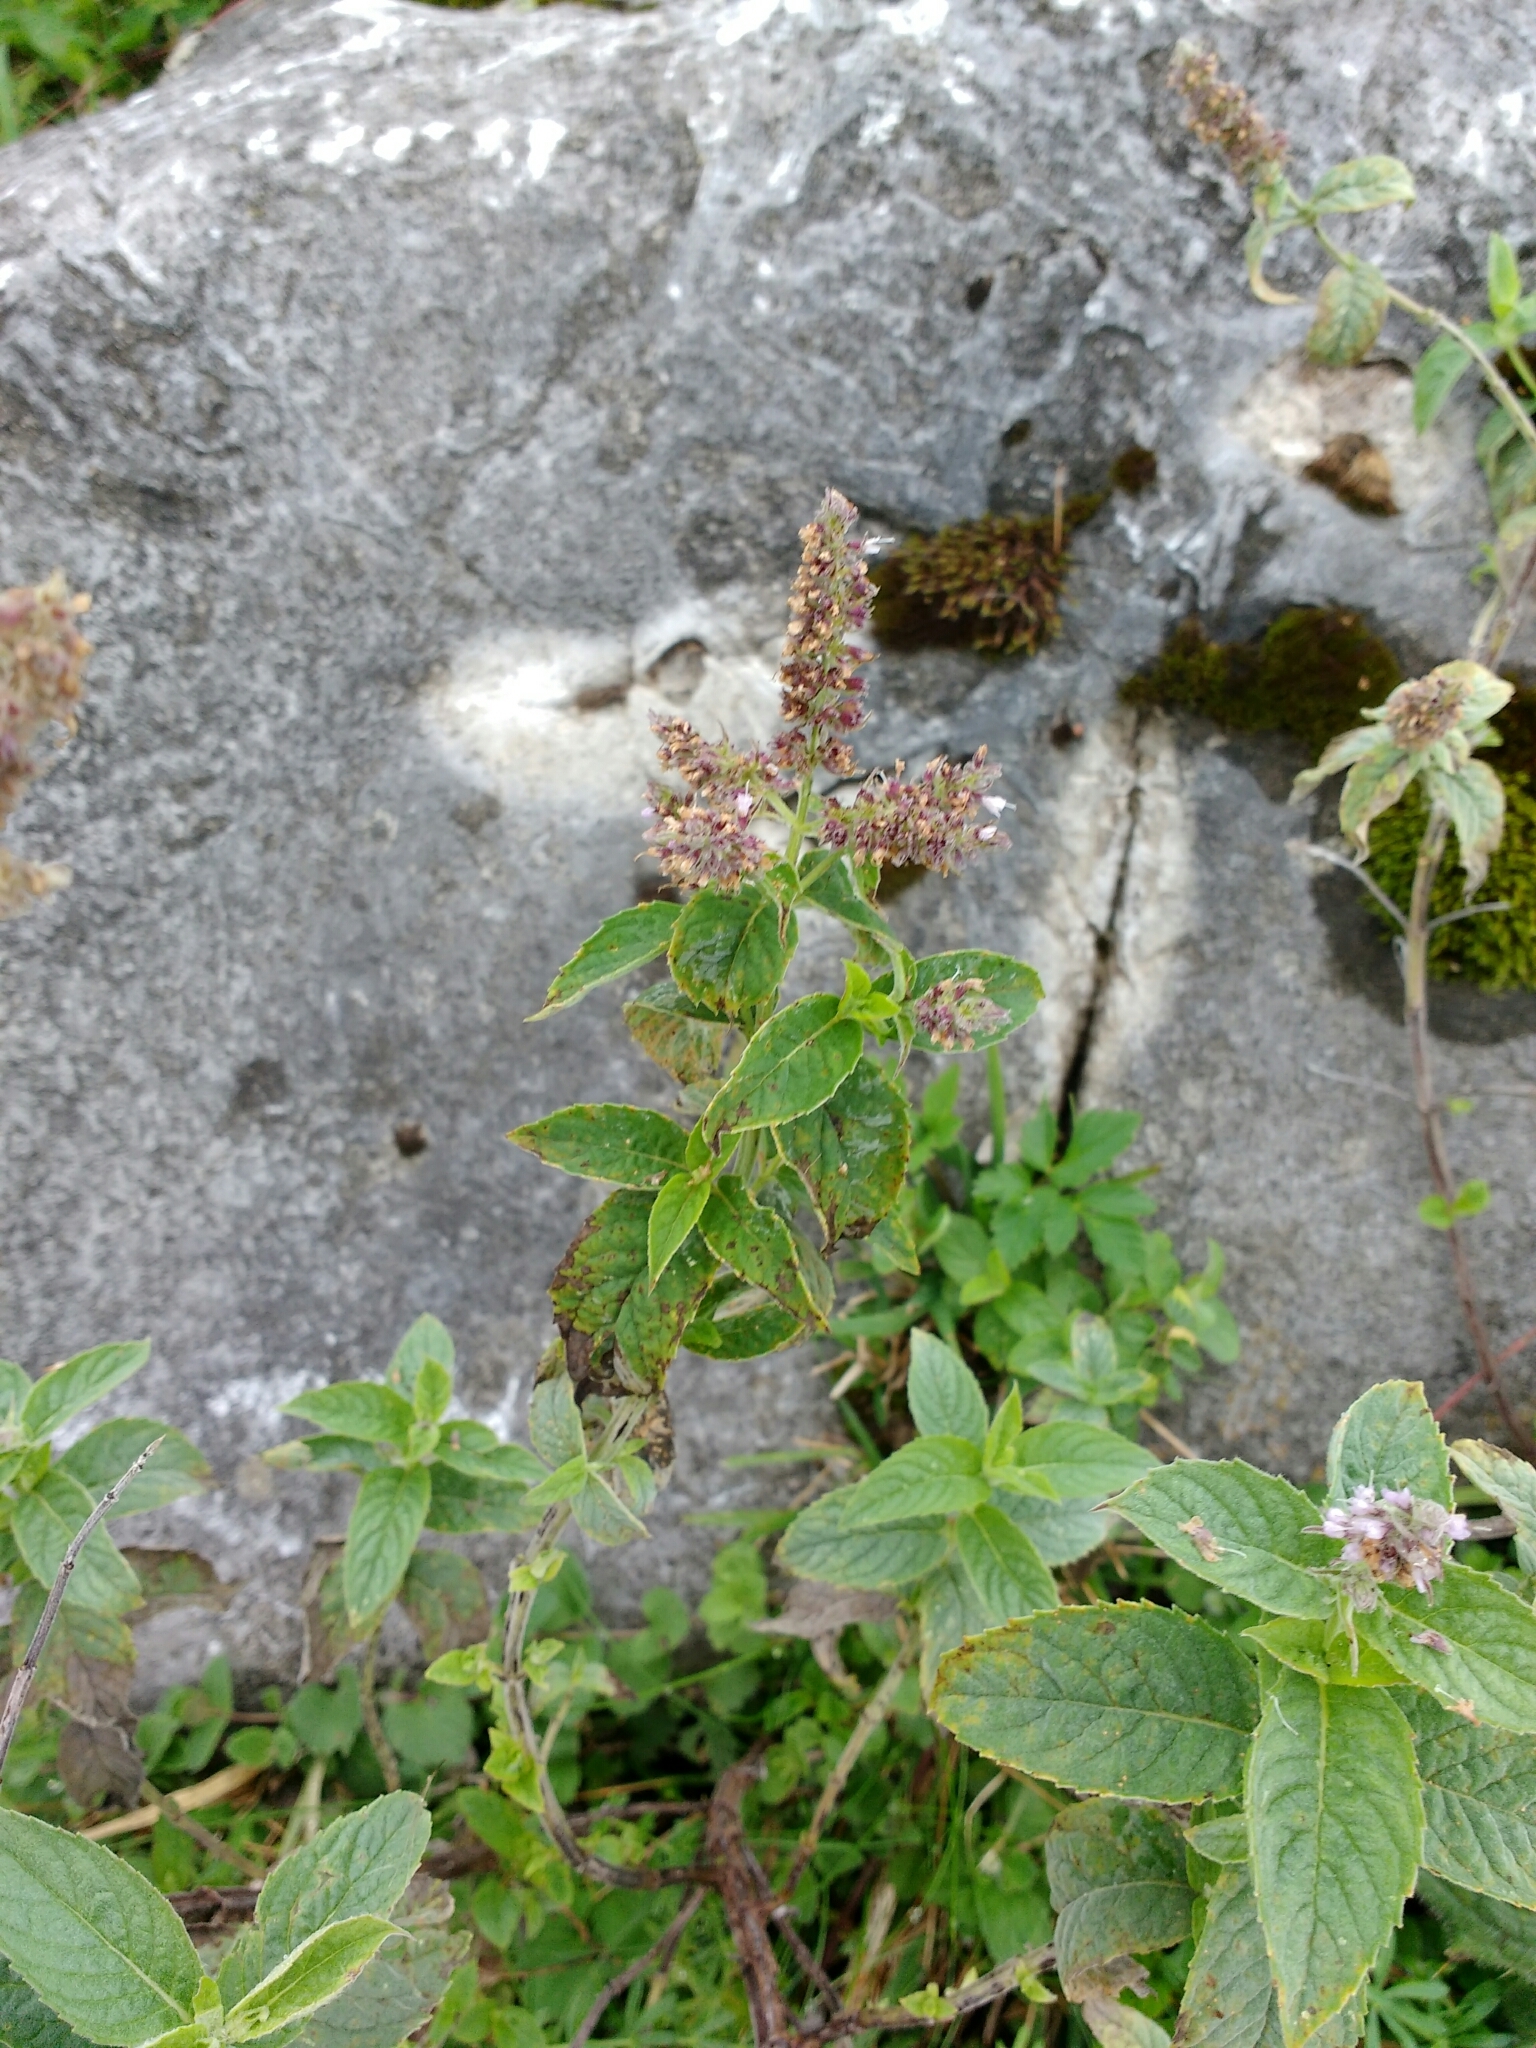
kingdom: Plantae
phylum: Tracheophyta
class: Magnoliopsida
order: Lamiales
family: Lamiaceae
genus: Mentha
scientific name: Mentha longifolia
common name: Horse mint
